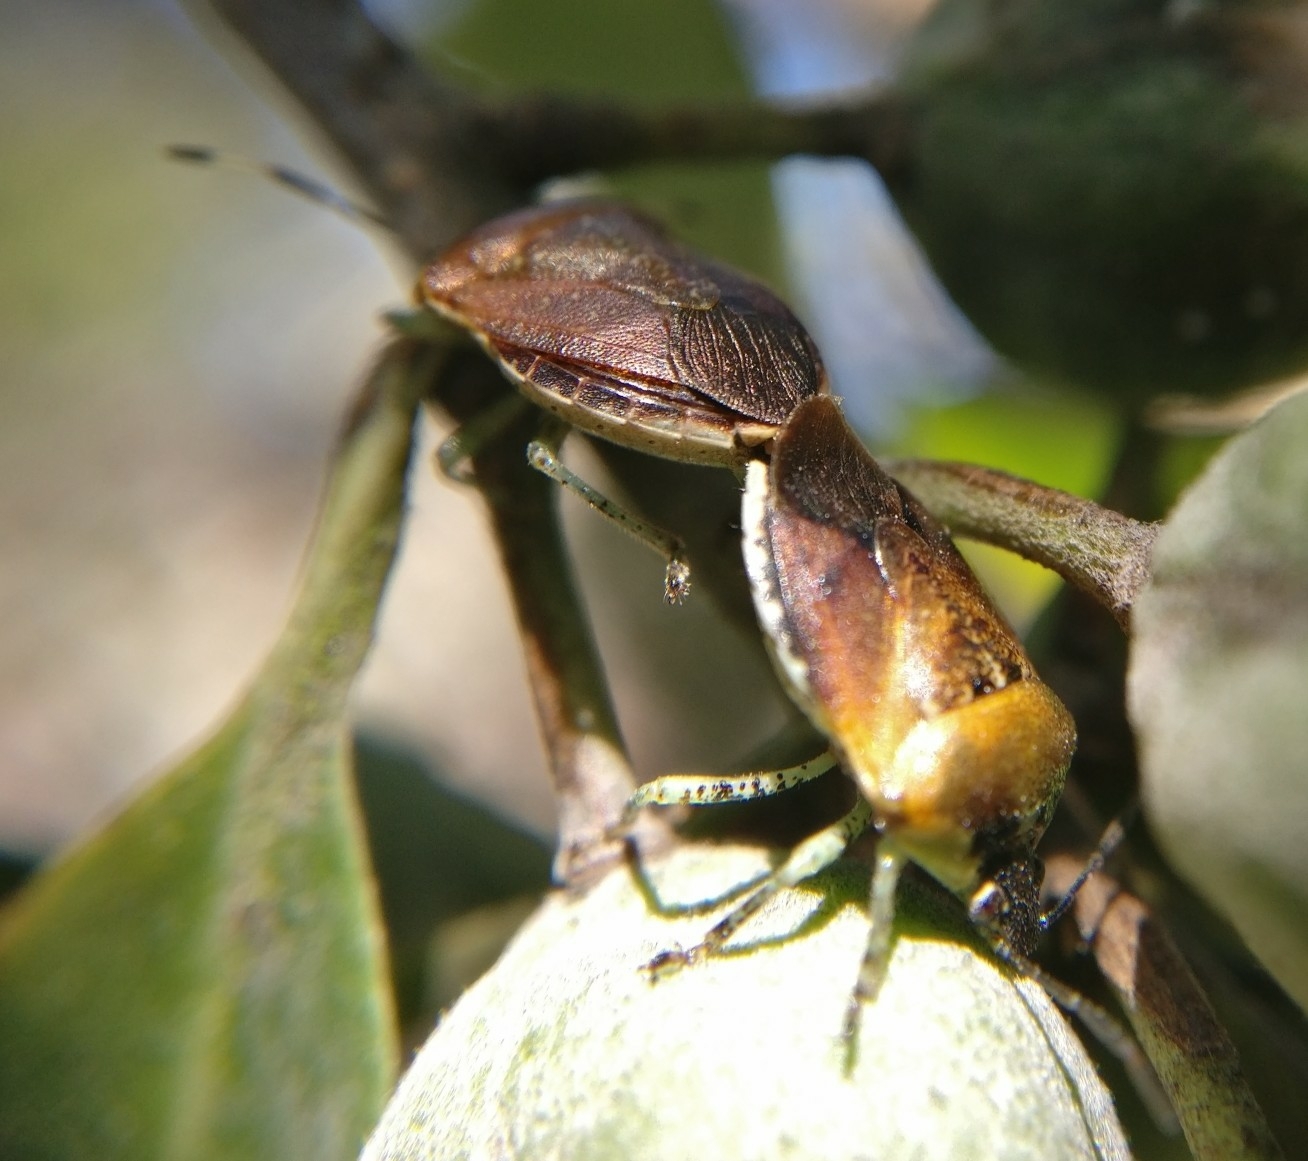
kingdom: Animalia
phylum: Arthropoda
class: Insecta
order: Hemiptera
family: Pentatomidae
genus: Monteithiella
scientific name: Monteithiella
